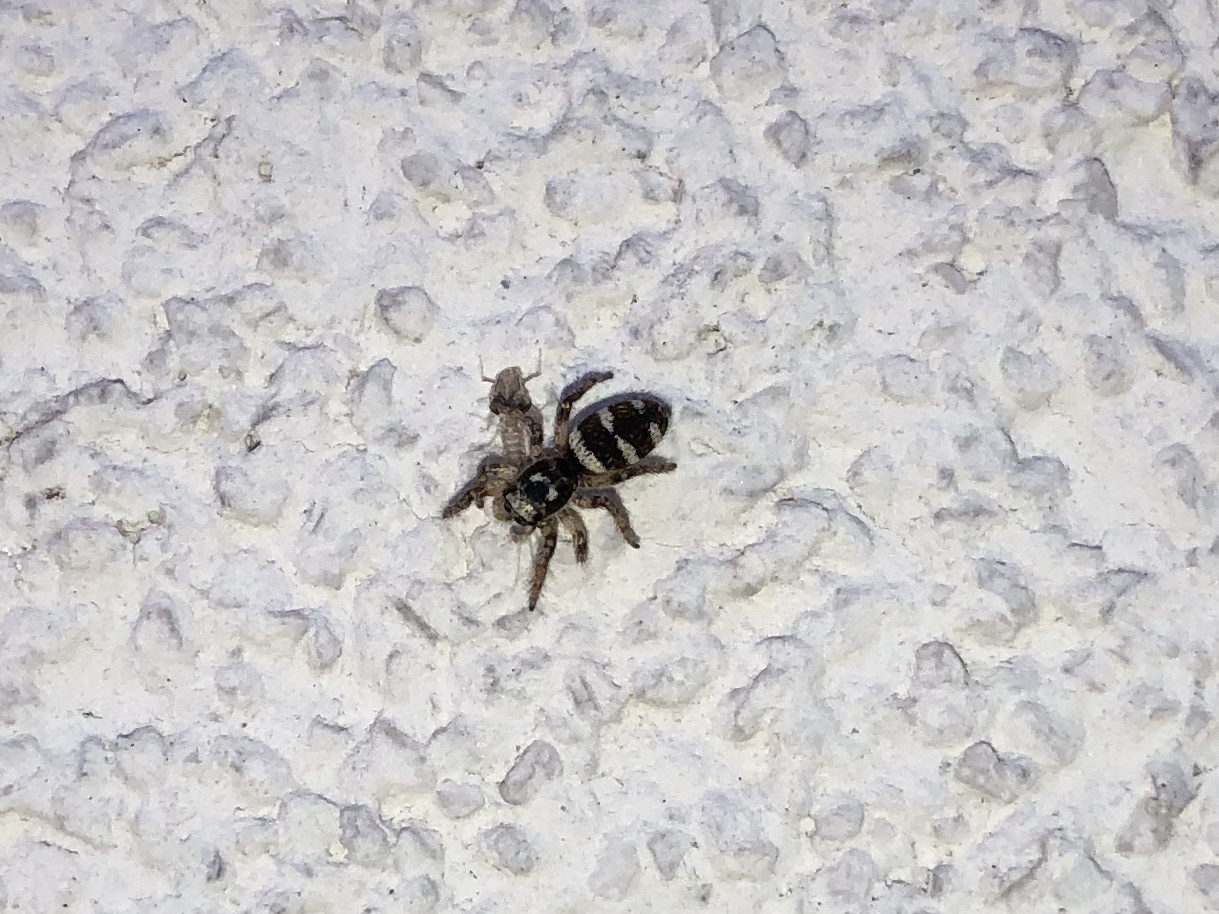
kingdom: Animalia
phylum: Arthropoda
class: Arachnida
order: Araneae
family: Salticidae
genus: Salticus
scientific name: Salticus scenicus
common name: Zebra jumper
